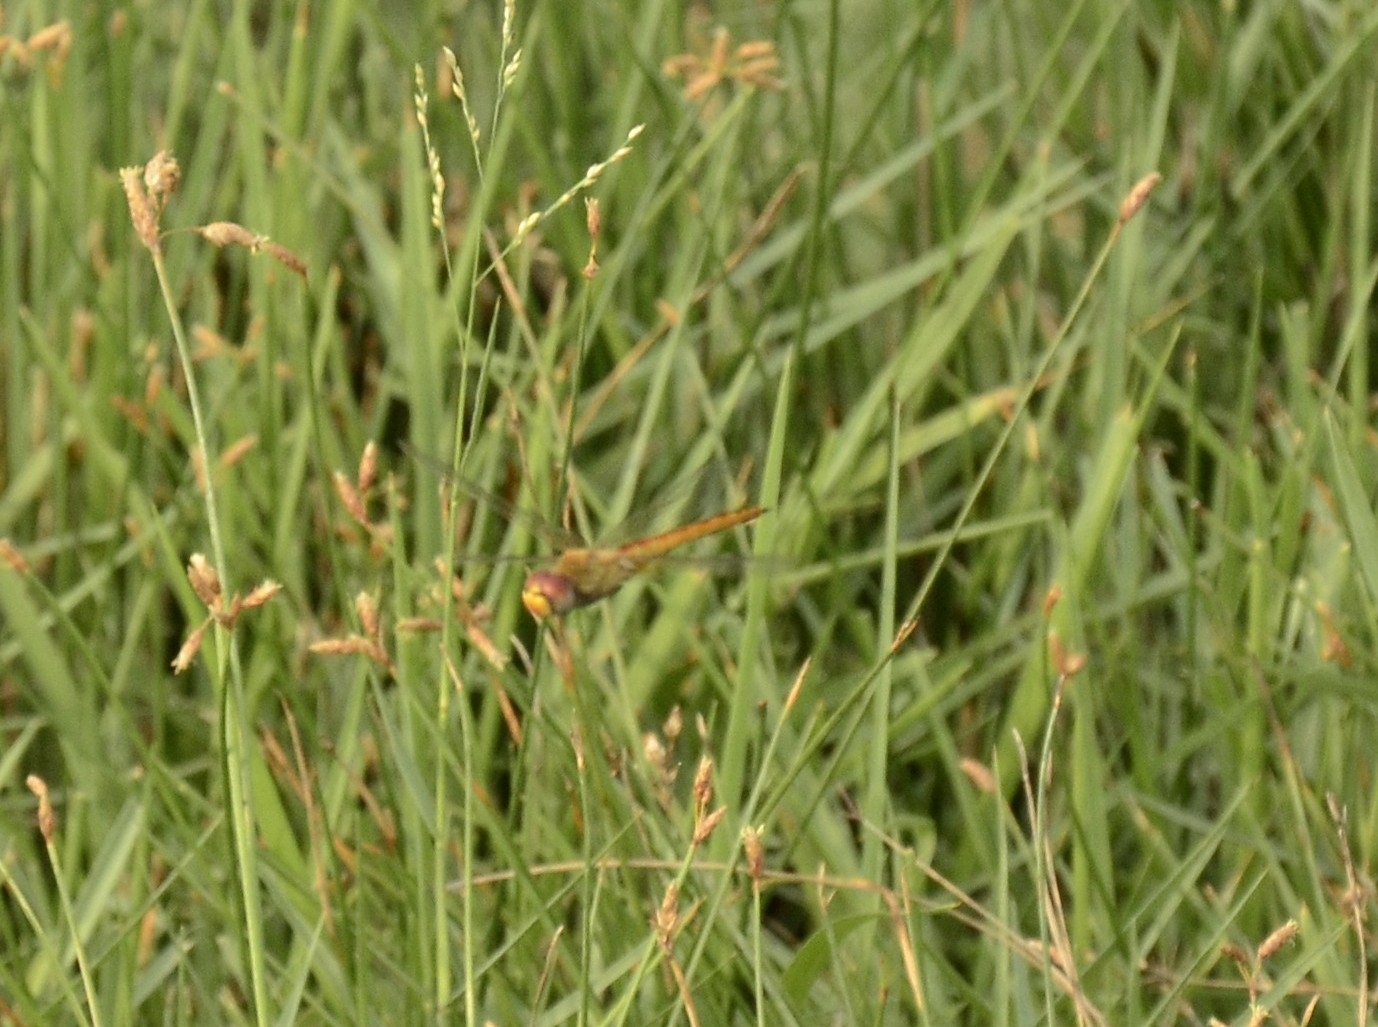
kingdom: Animalia
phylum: Arthropoda
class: Insecta
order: Odonata
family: Libellulidae
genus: Pantala
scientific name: Pantala flavescens
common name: Wandering glider
